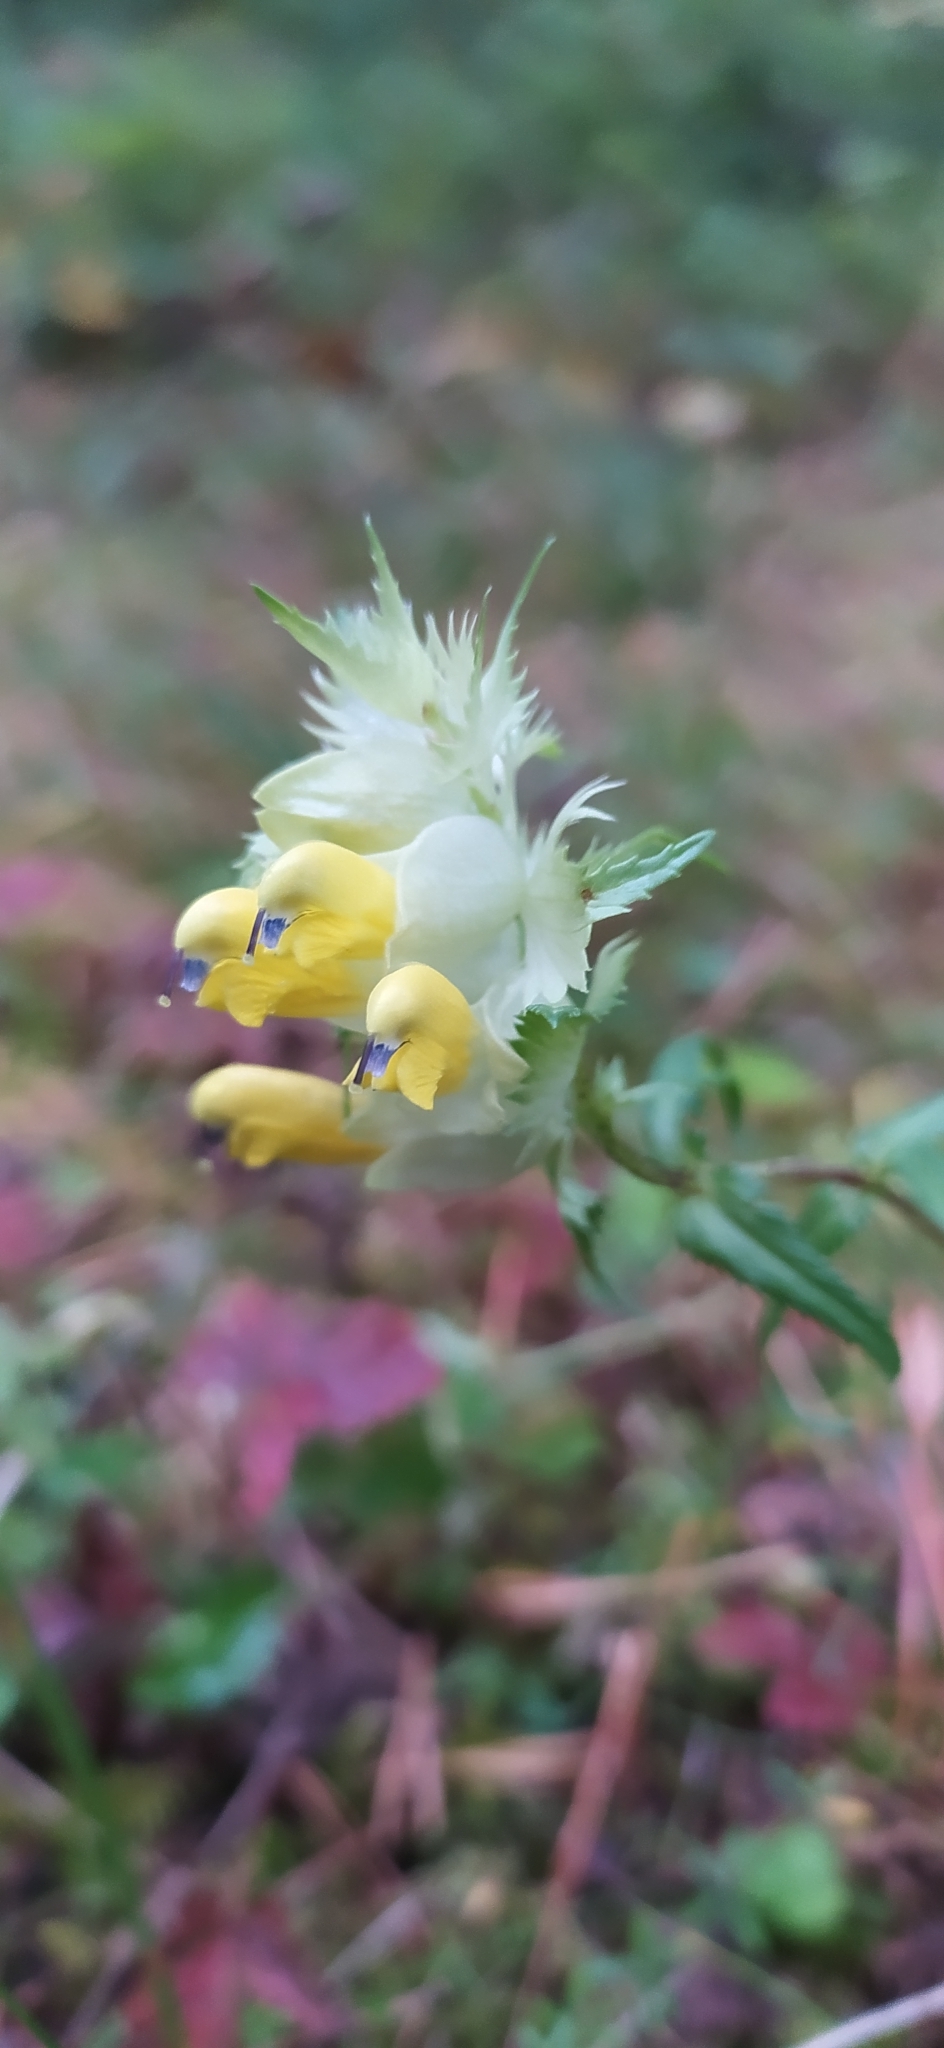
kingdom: Plantae
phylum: Tracheophyta
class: Magnoliopsida
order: Lamiales
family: Orobanchaceae
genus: Rhinanthus
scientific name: Rhinanthus serotinus
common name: Late-flowering yellow rattle
